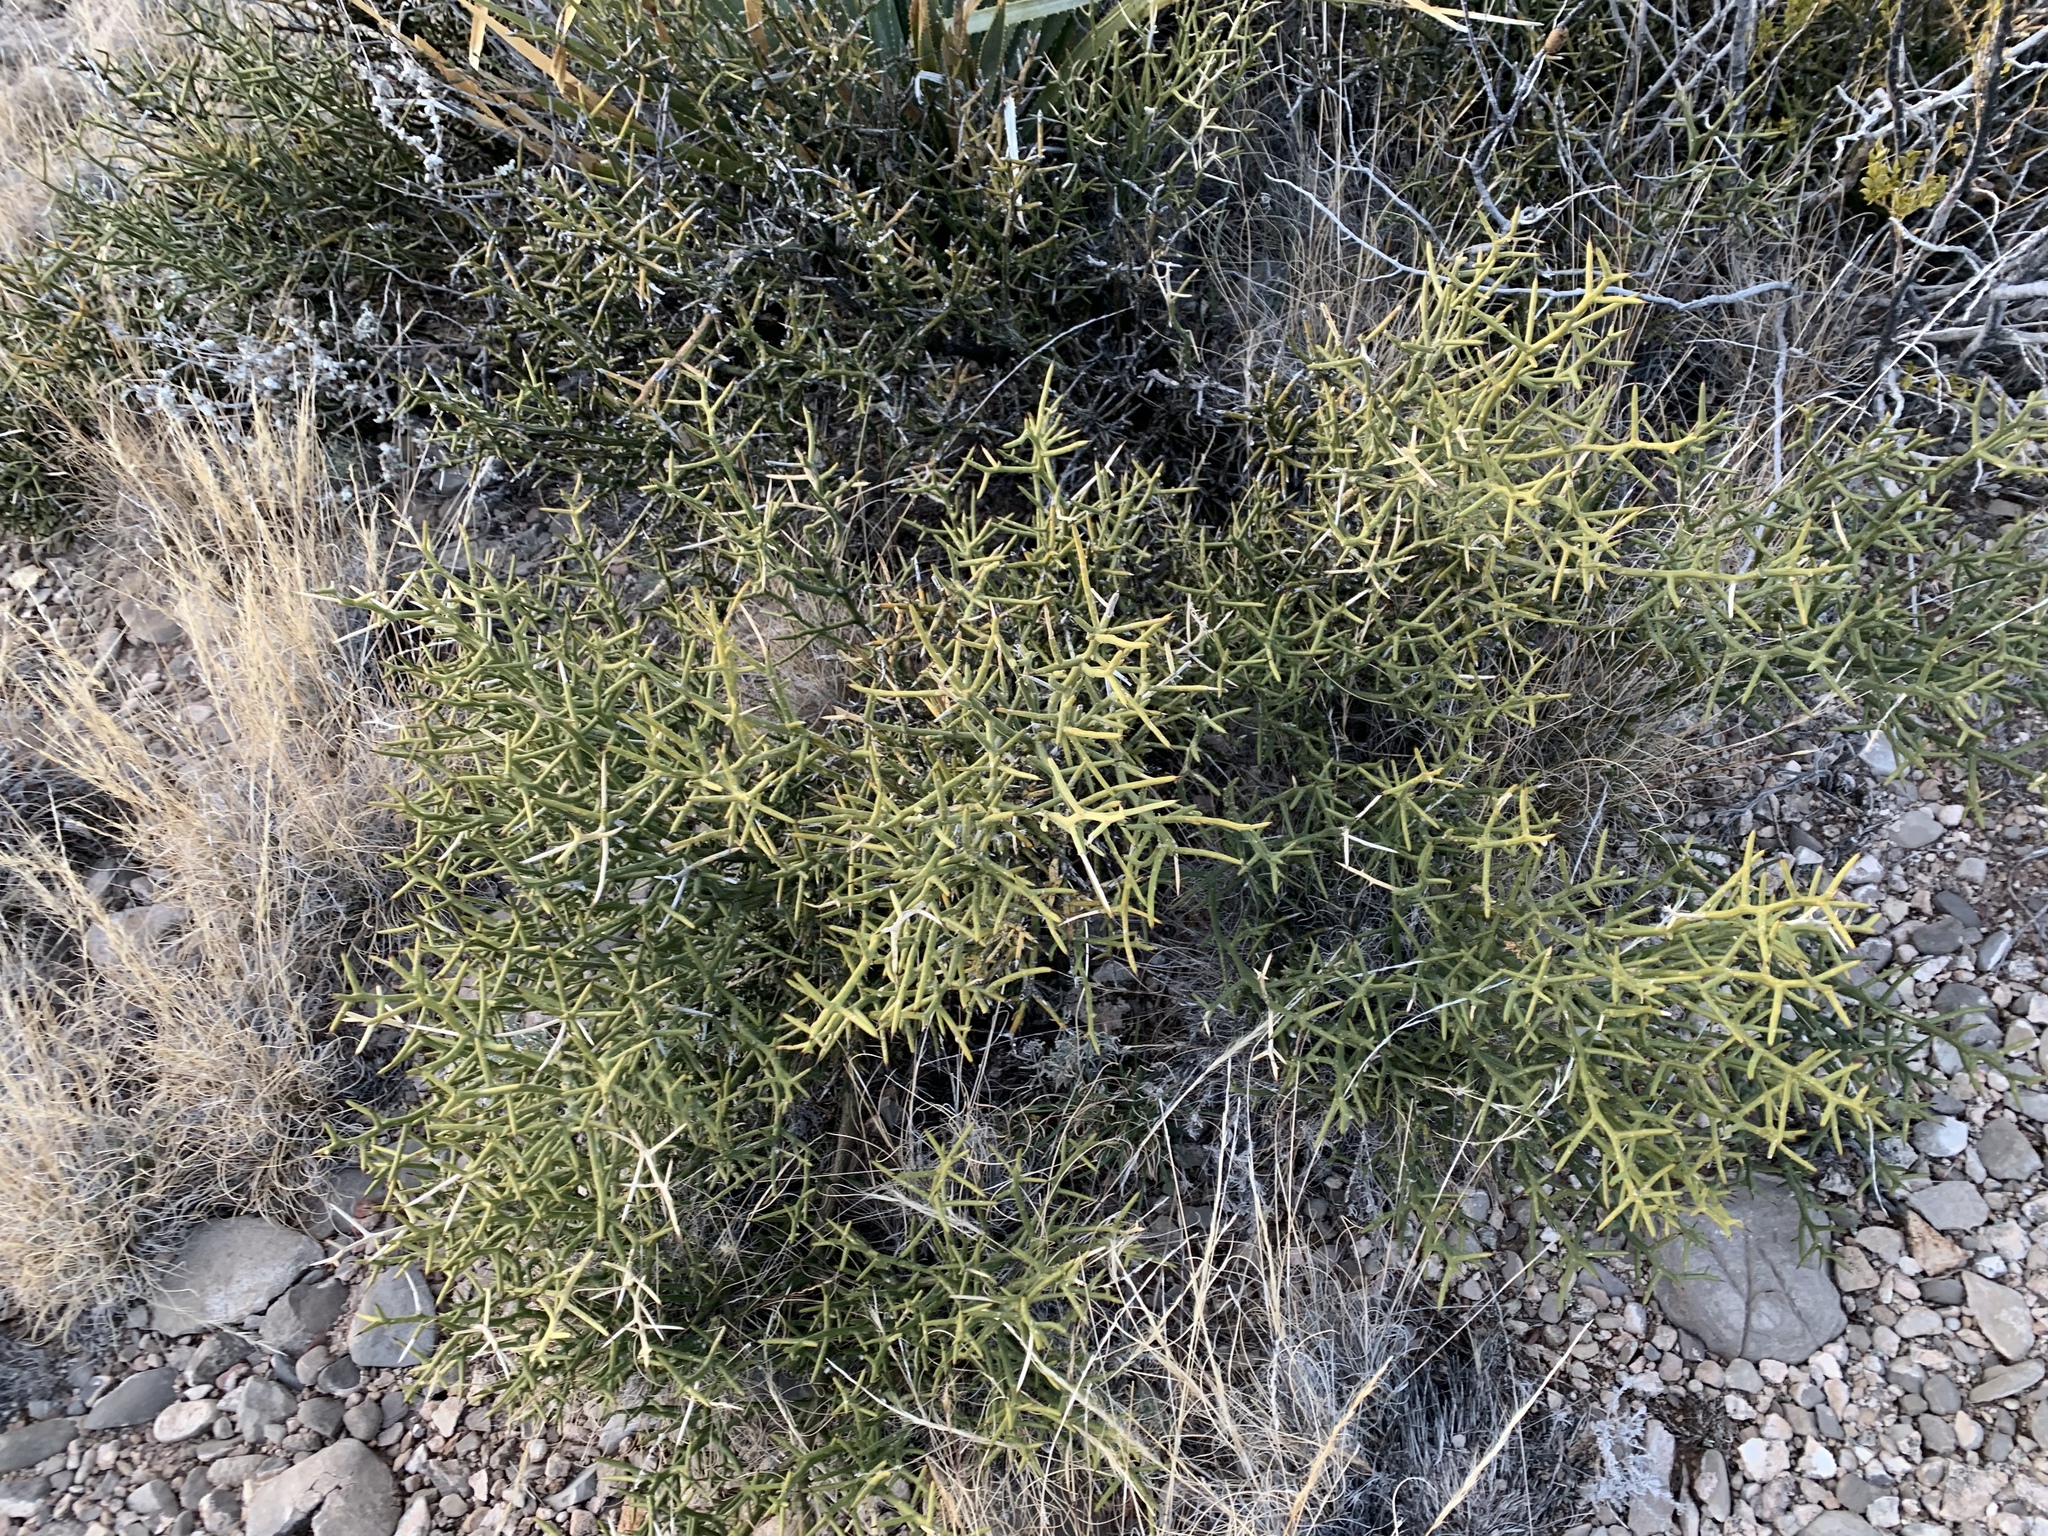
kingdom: Plantae
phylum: Tracheophyta
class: Magnoliopsida
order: Brassicales
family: Koeberliniaceae
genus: Koeberlinia
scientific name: Koeberlinia spinosa
